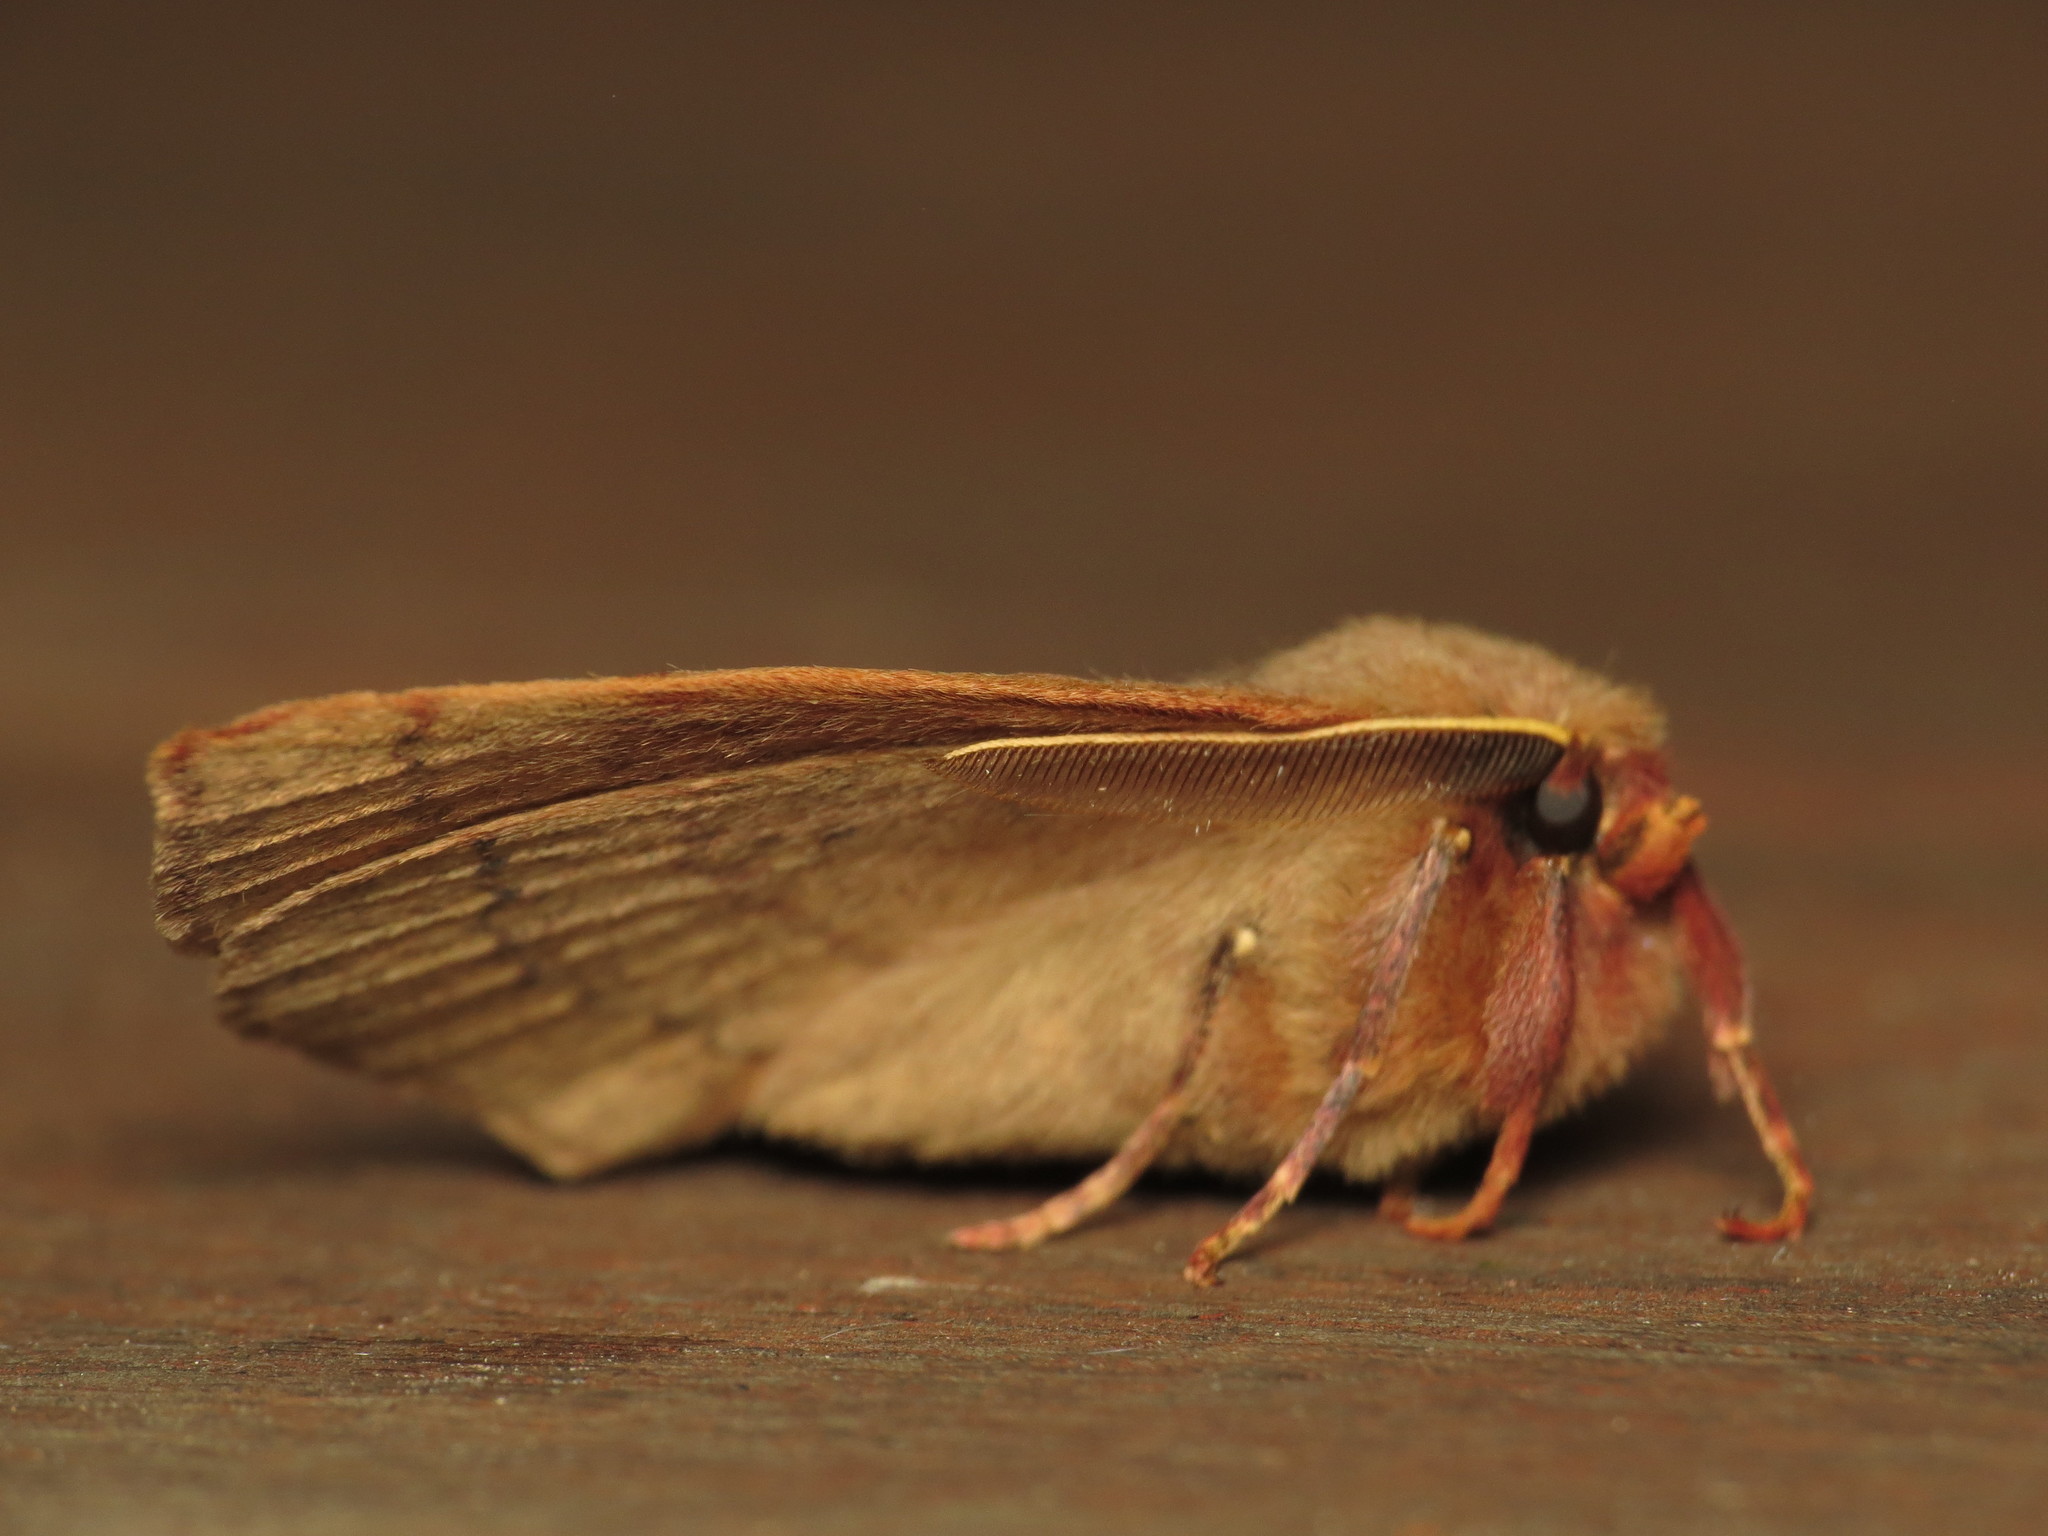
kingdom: Animalia
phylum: Arthropoda
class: Insecta
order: Lepidoptera
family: Anthelidae
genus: Anthela
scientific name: Anthela repleta
